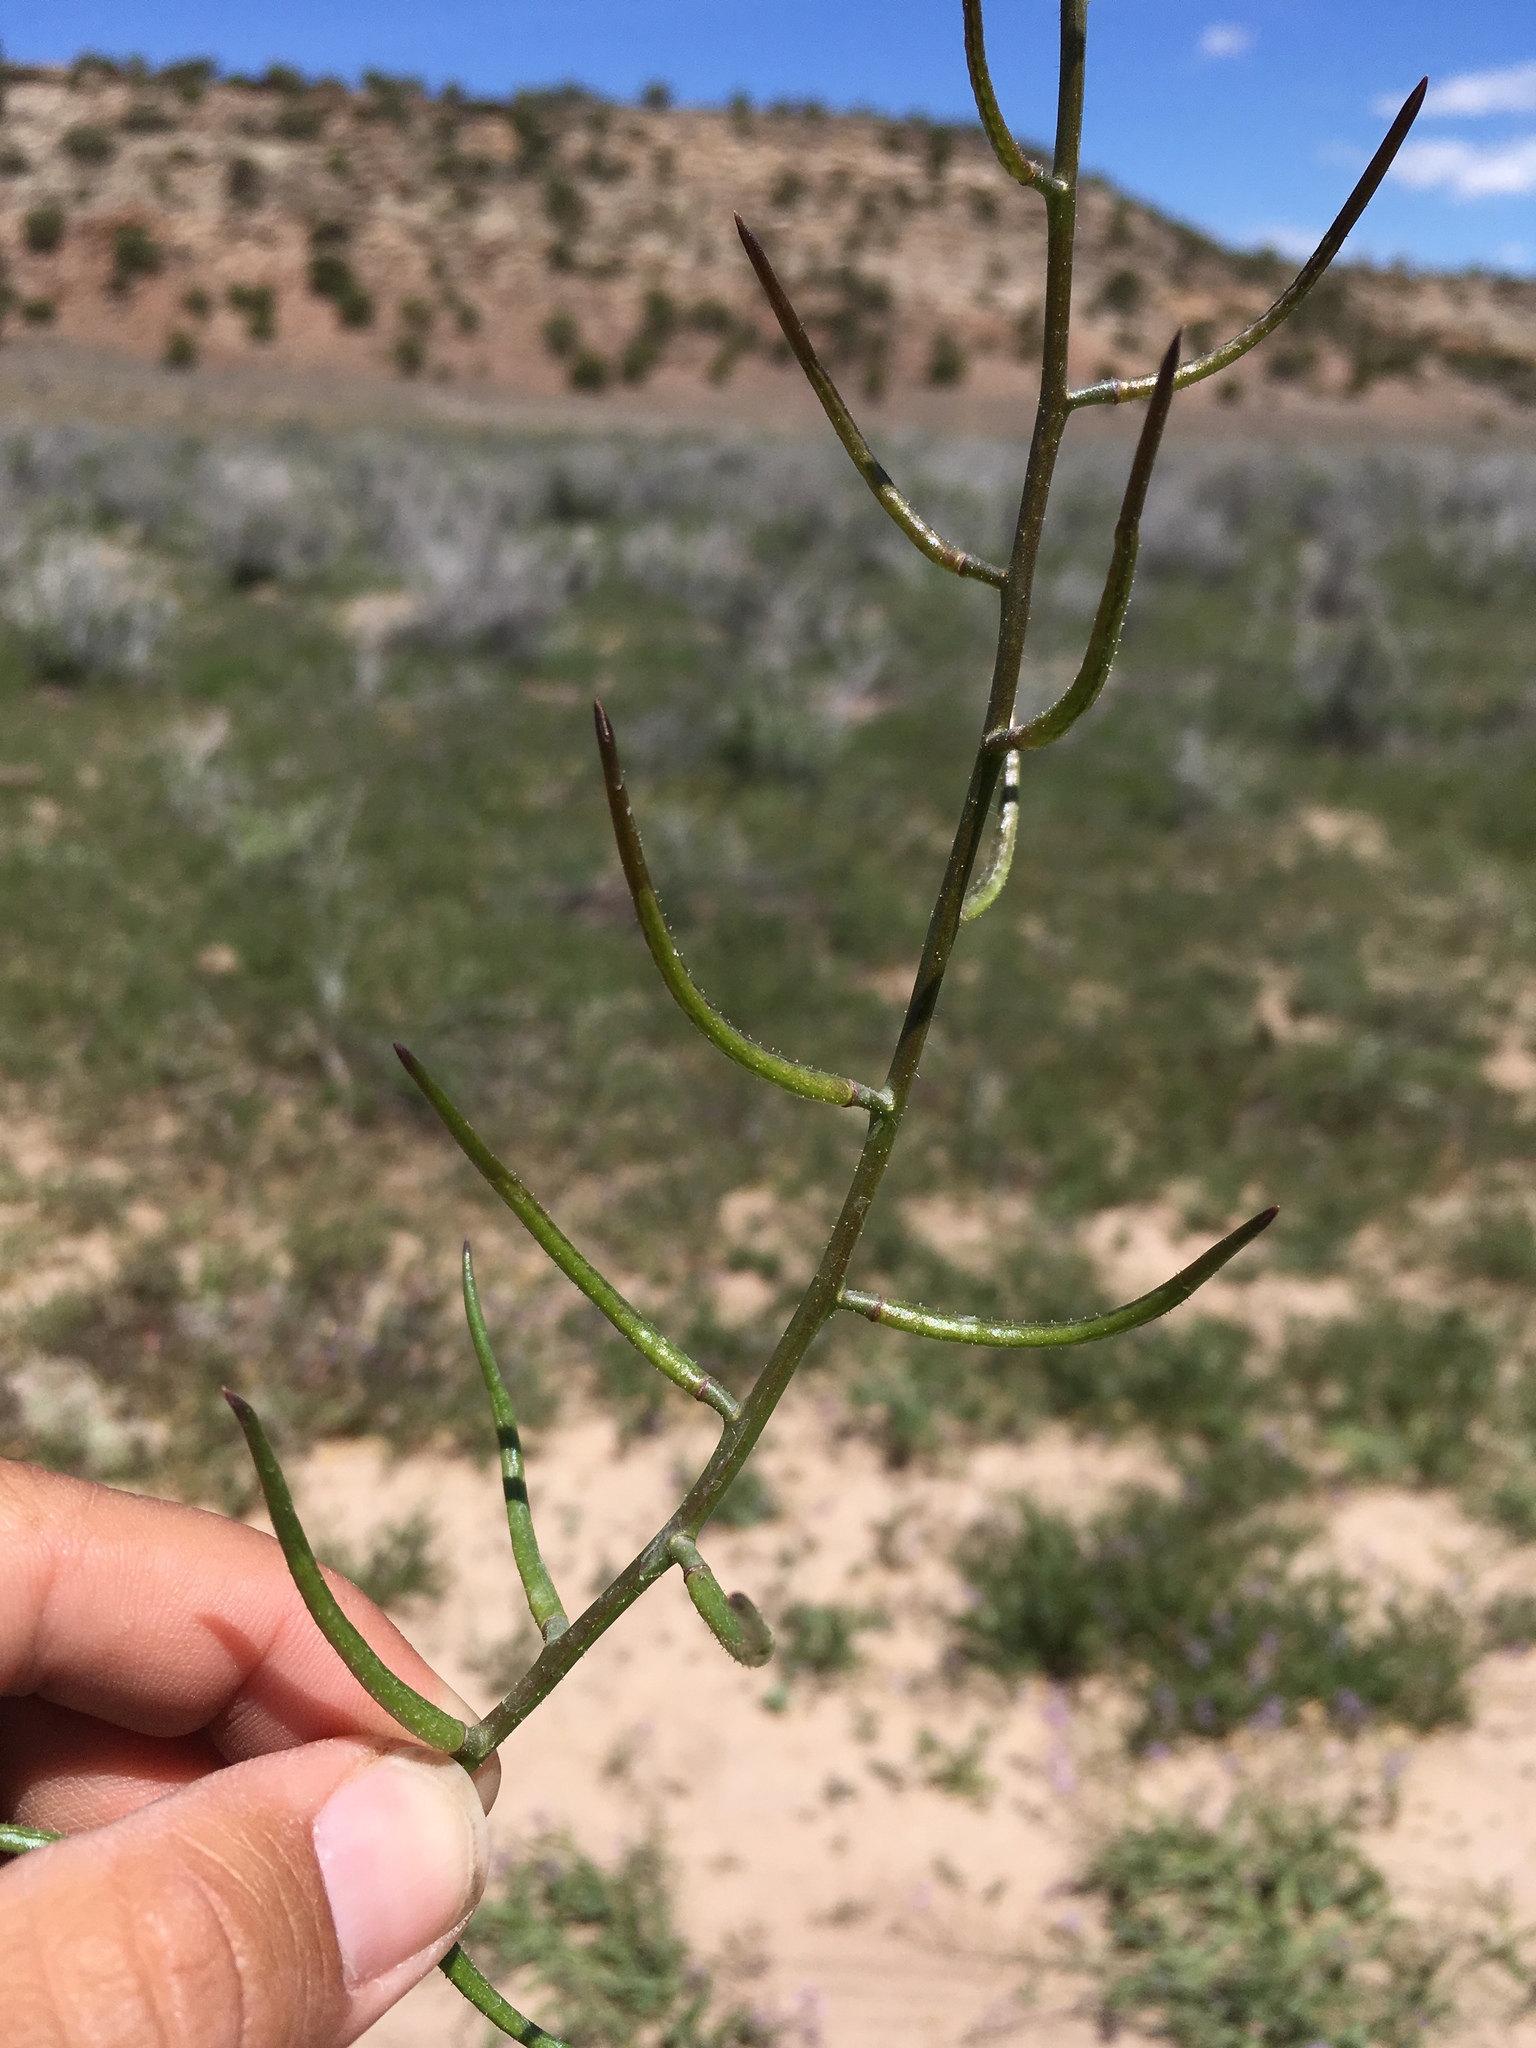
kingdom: Plantae
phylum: Tracheophyta
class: Magnoliopsida
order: Brassicales
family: Brassicaceae
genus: Chorispora
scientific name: Chorispora tenella
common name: Crossflower
